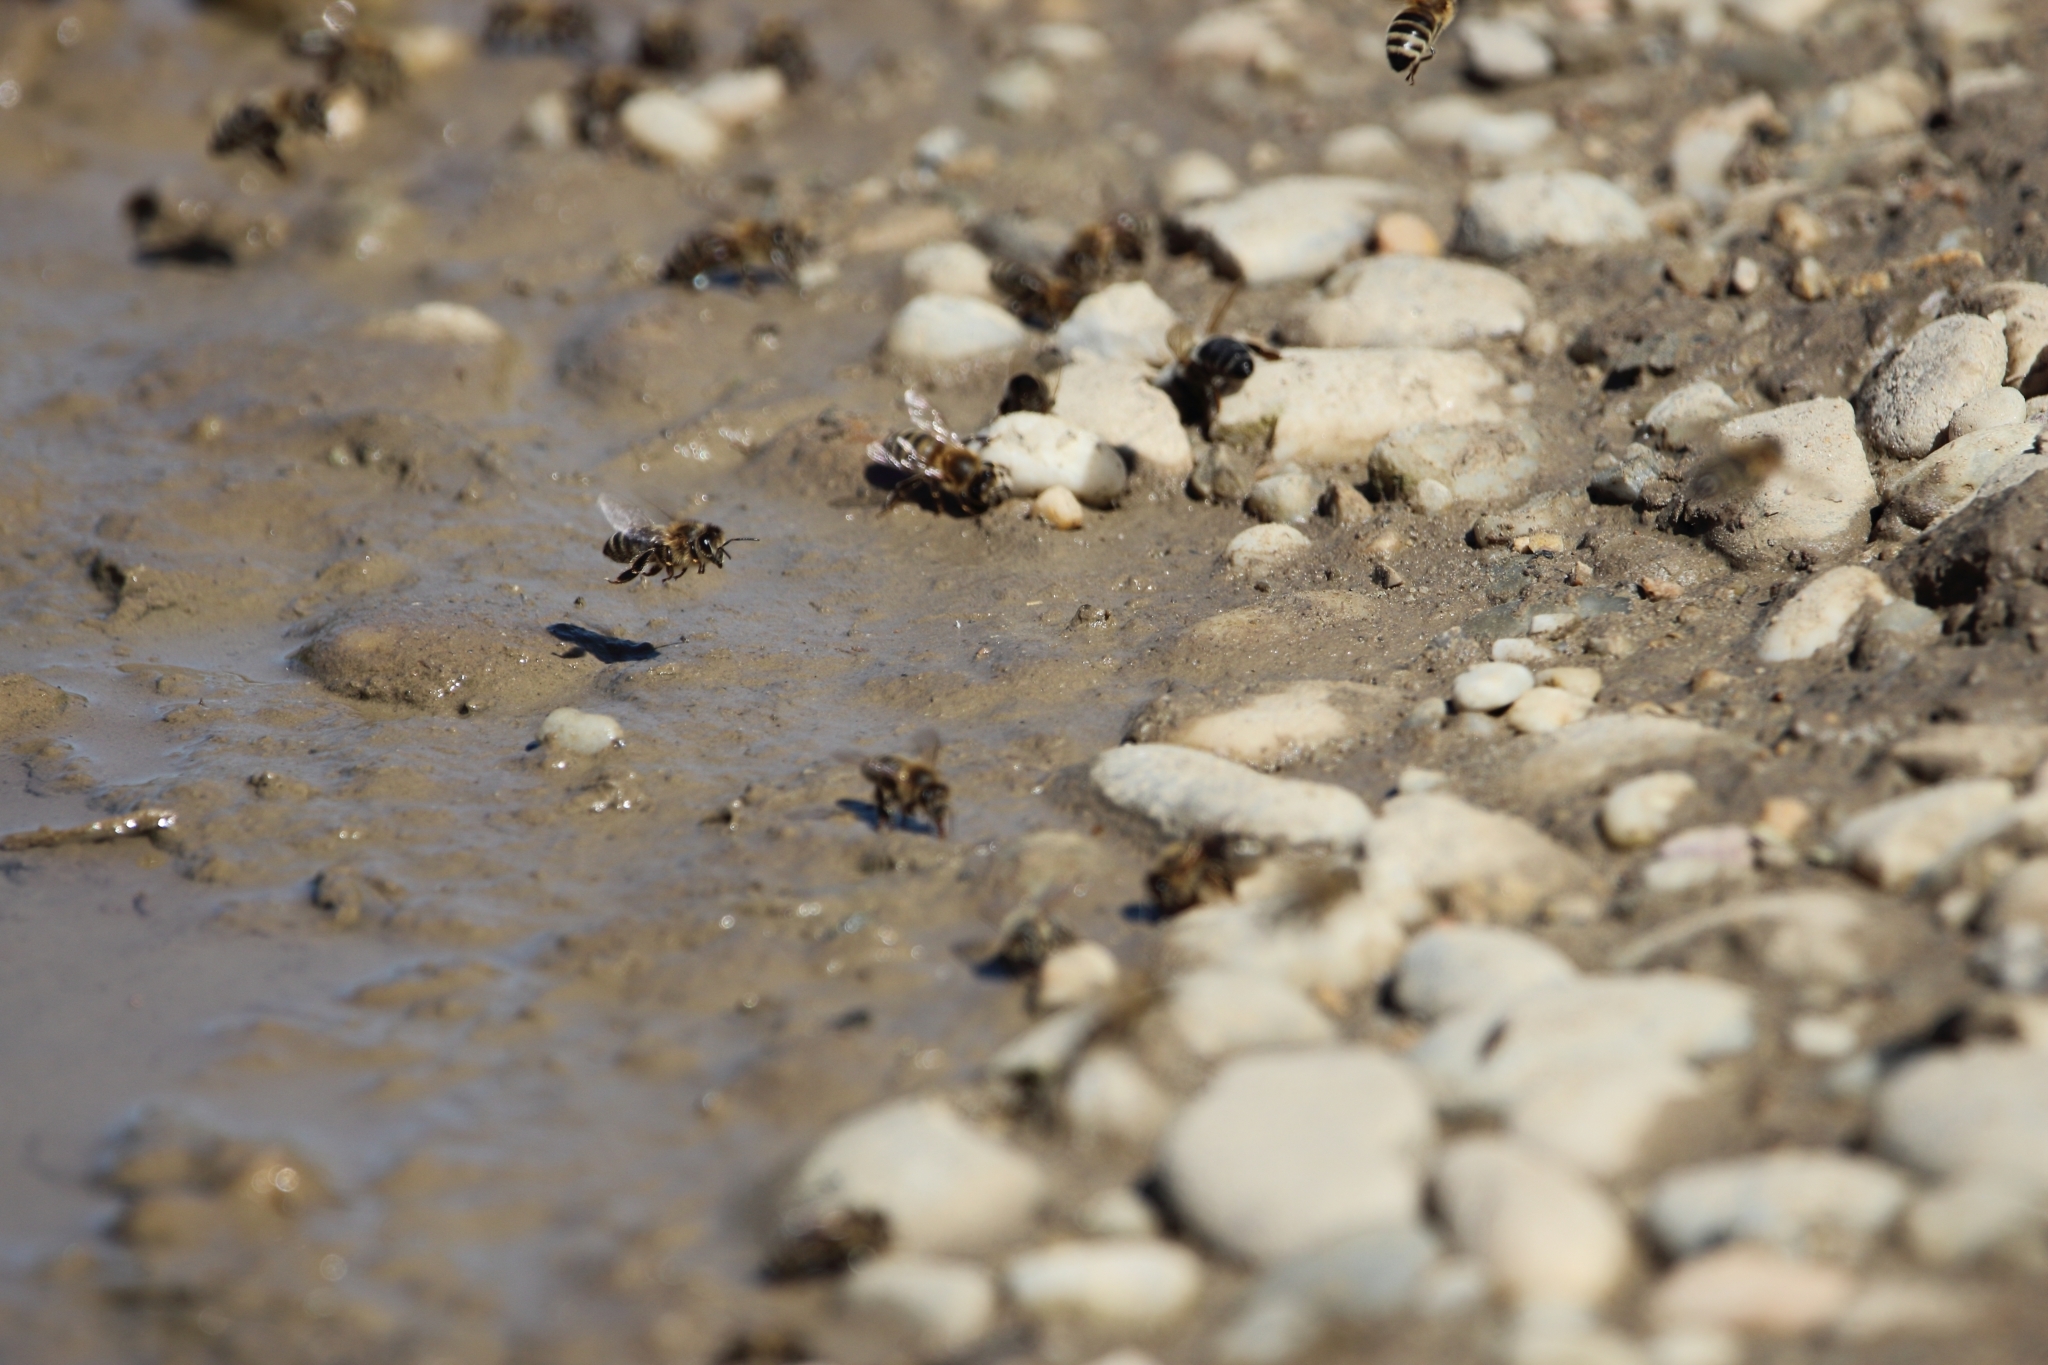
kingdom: Animalia
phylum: Arthropoda
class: Insecta
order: Hymenoptera
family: Apidae
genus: Apis
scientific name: Apis mellifera
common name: Honey bee
